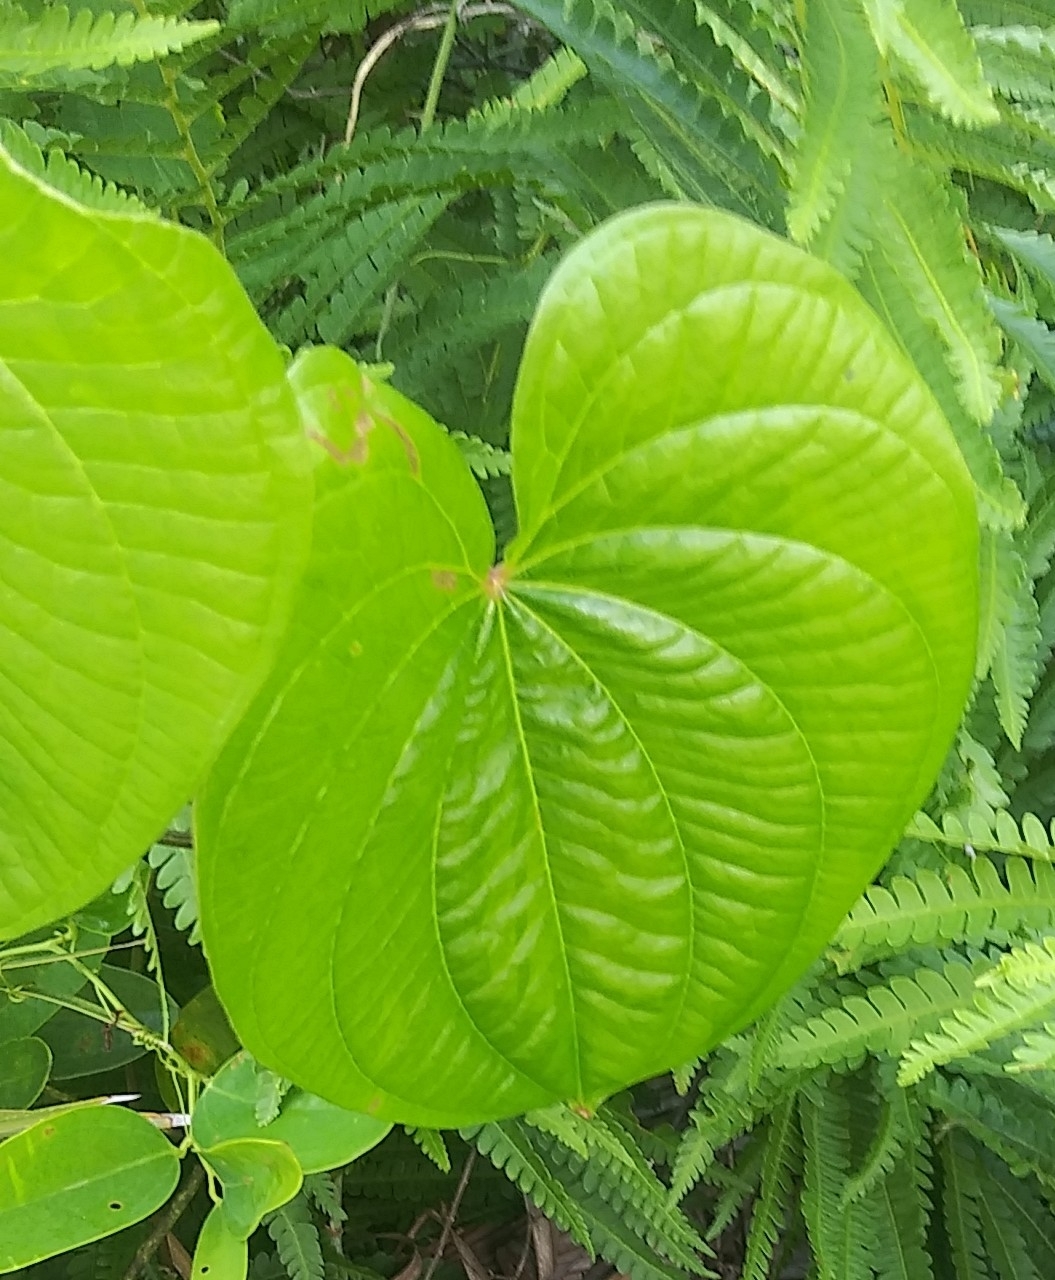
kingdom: Plantae
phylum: Tracheophyta
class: Liliopsida
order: Dioscoreales
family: Dioscoreaceae
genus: Dioscorea
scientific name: Dioscorea bulbifera
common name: Air yam
